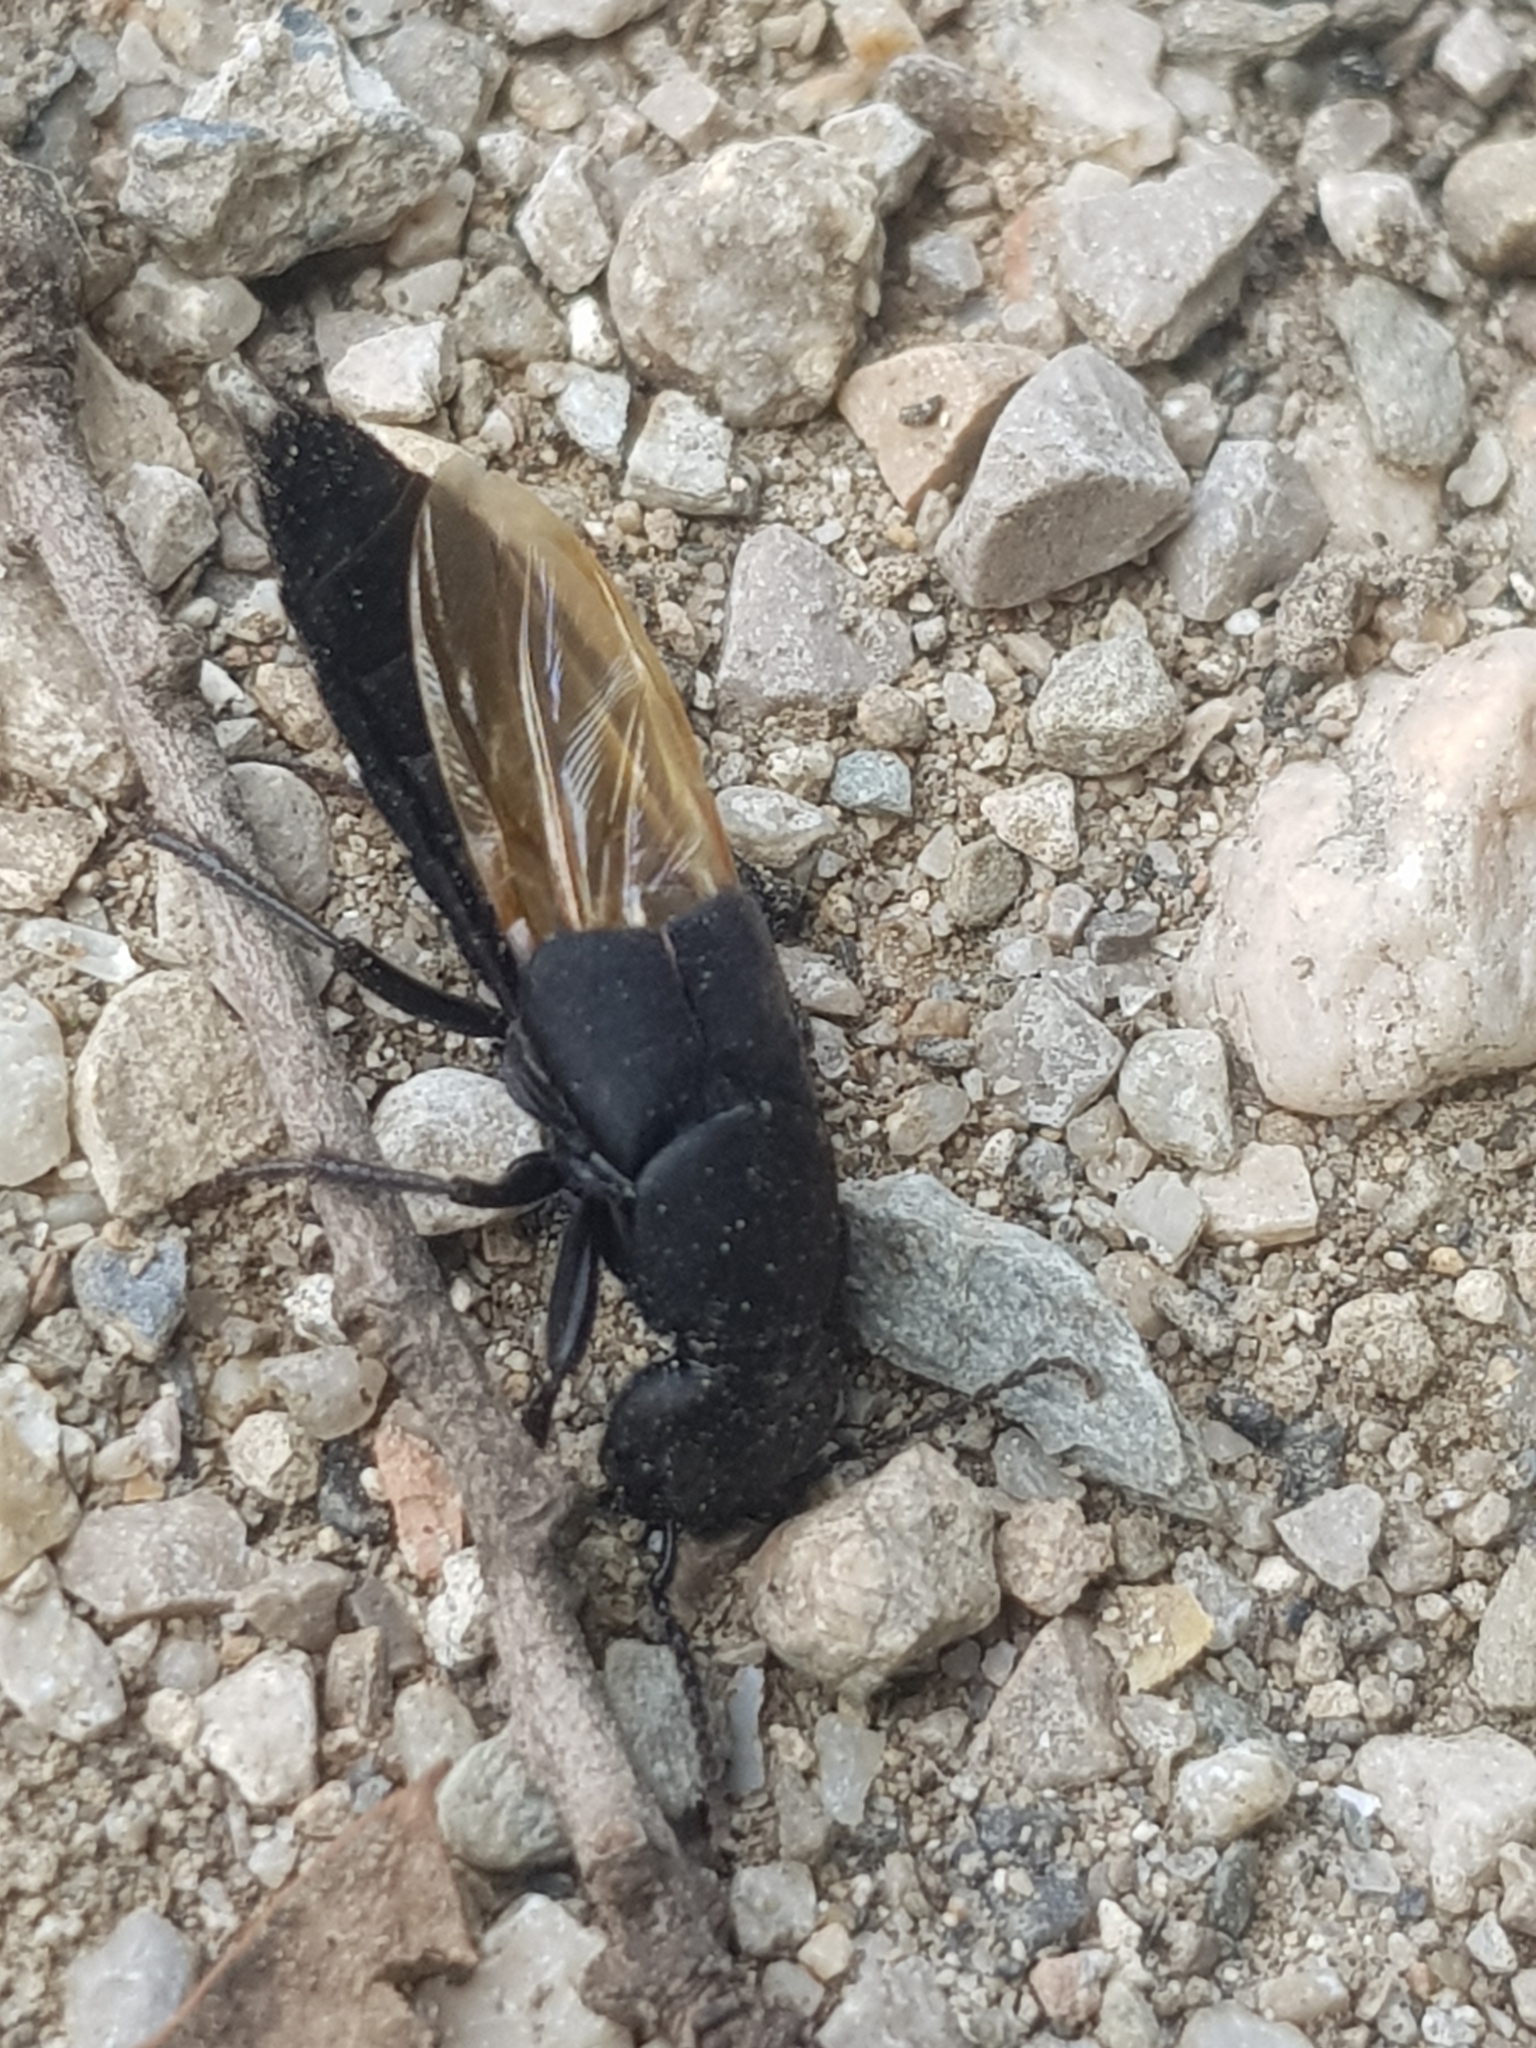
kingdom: Animalia
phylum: Arthropoda
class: Insecta
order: Coleoptera
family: Staphylinidae
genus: Ocypus
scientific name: Ocypus olens
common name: Devil's coach-horse
